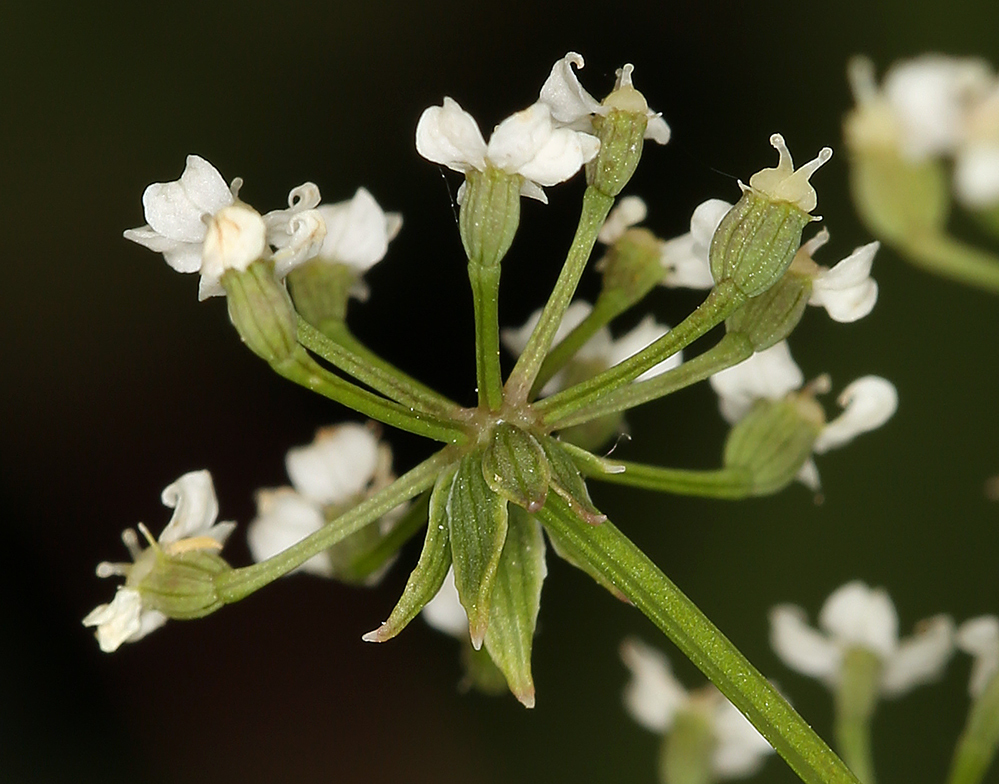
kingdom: Plantae
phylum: Tracheophyta
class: Magnoliopsida
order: Apiales
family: Apiaceae
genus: Berula
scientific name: Berula erecta
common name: Lesser water-parsnip
